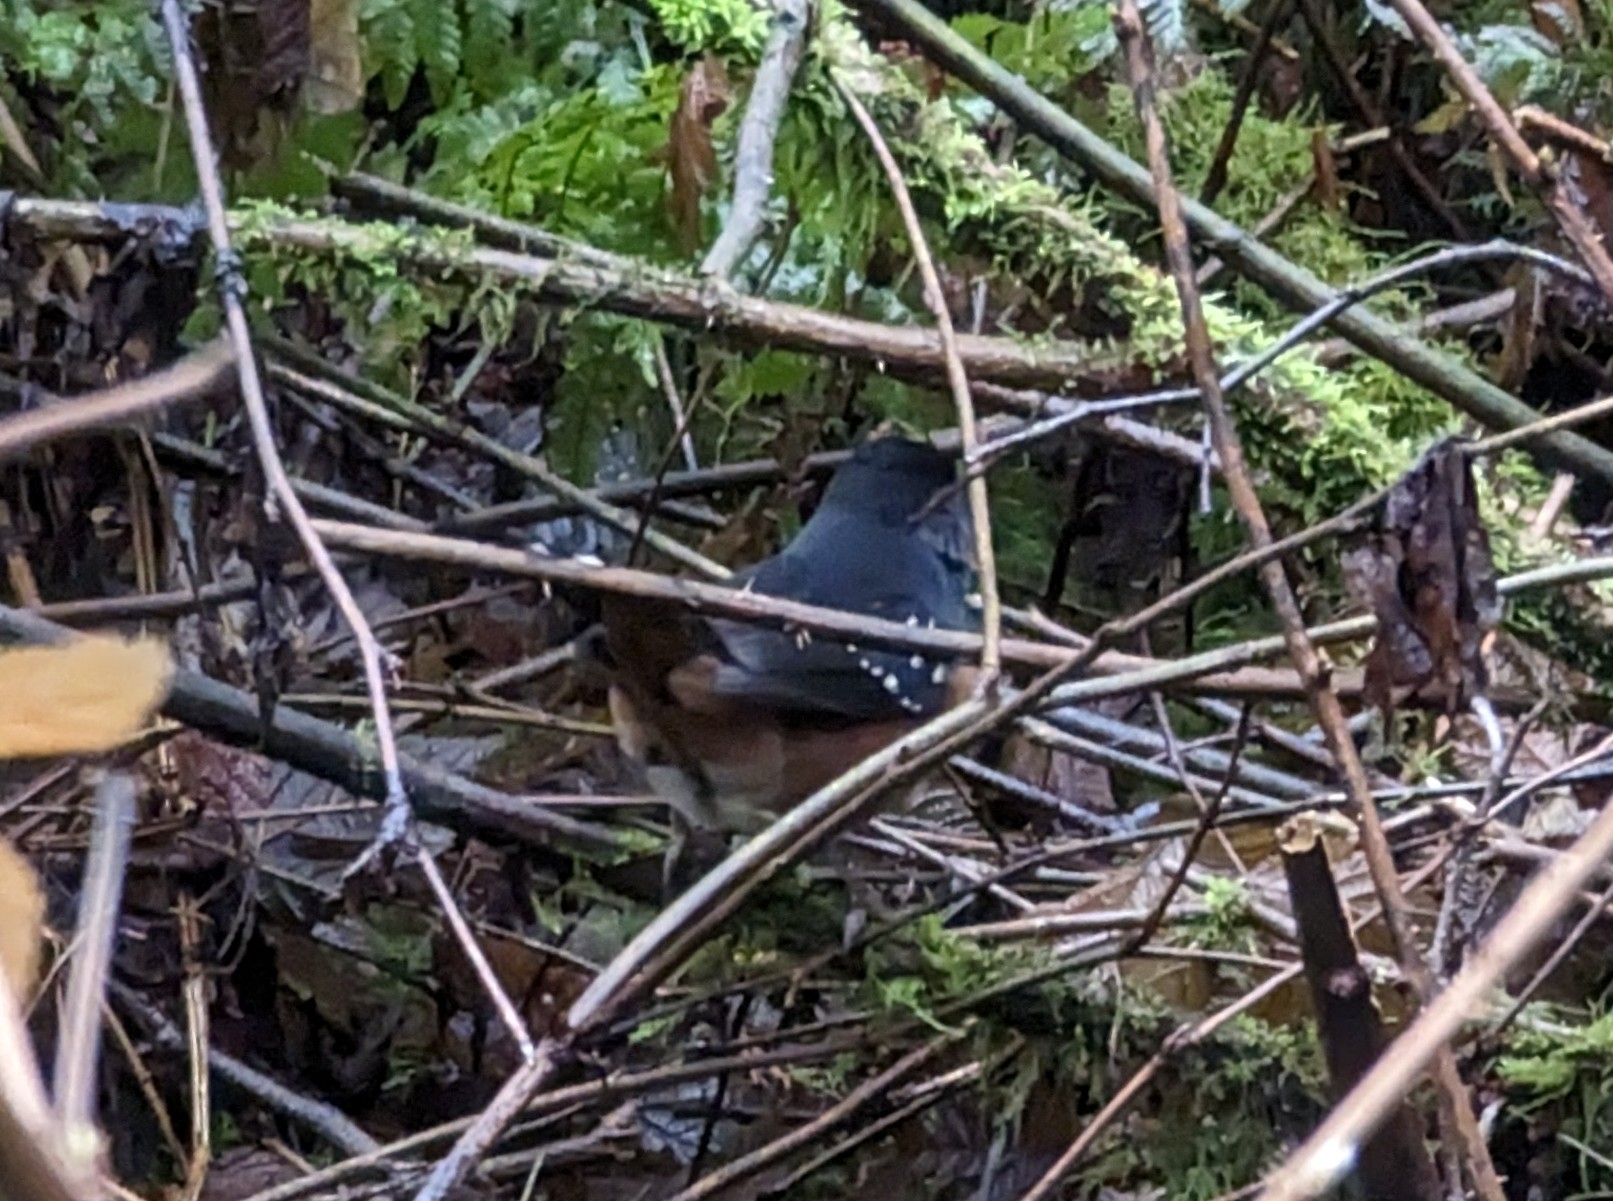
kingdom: Animalia
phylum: Chordata
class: Aves
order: Passeriformes
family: Passerellidae
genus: Pipilo
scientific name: Pipilo maculatus
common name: Spotted towhee
